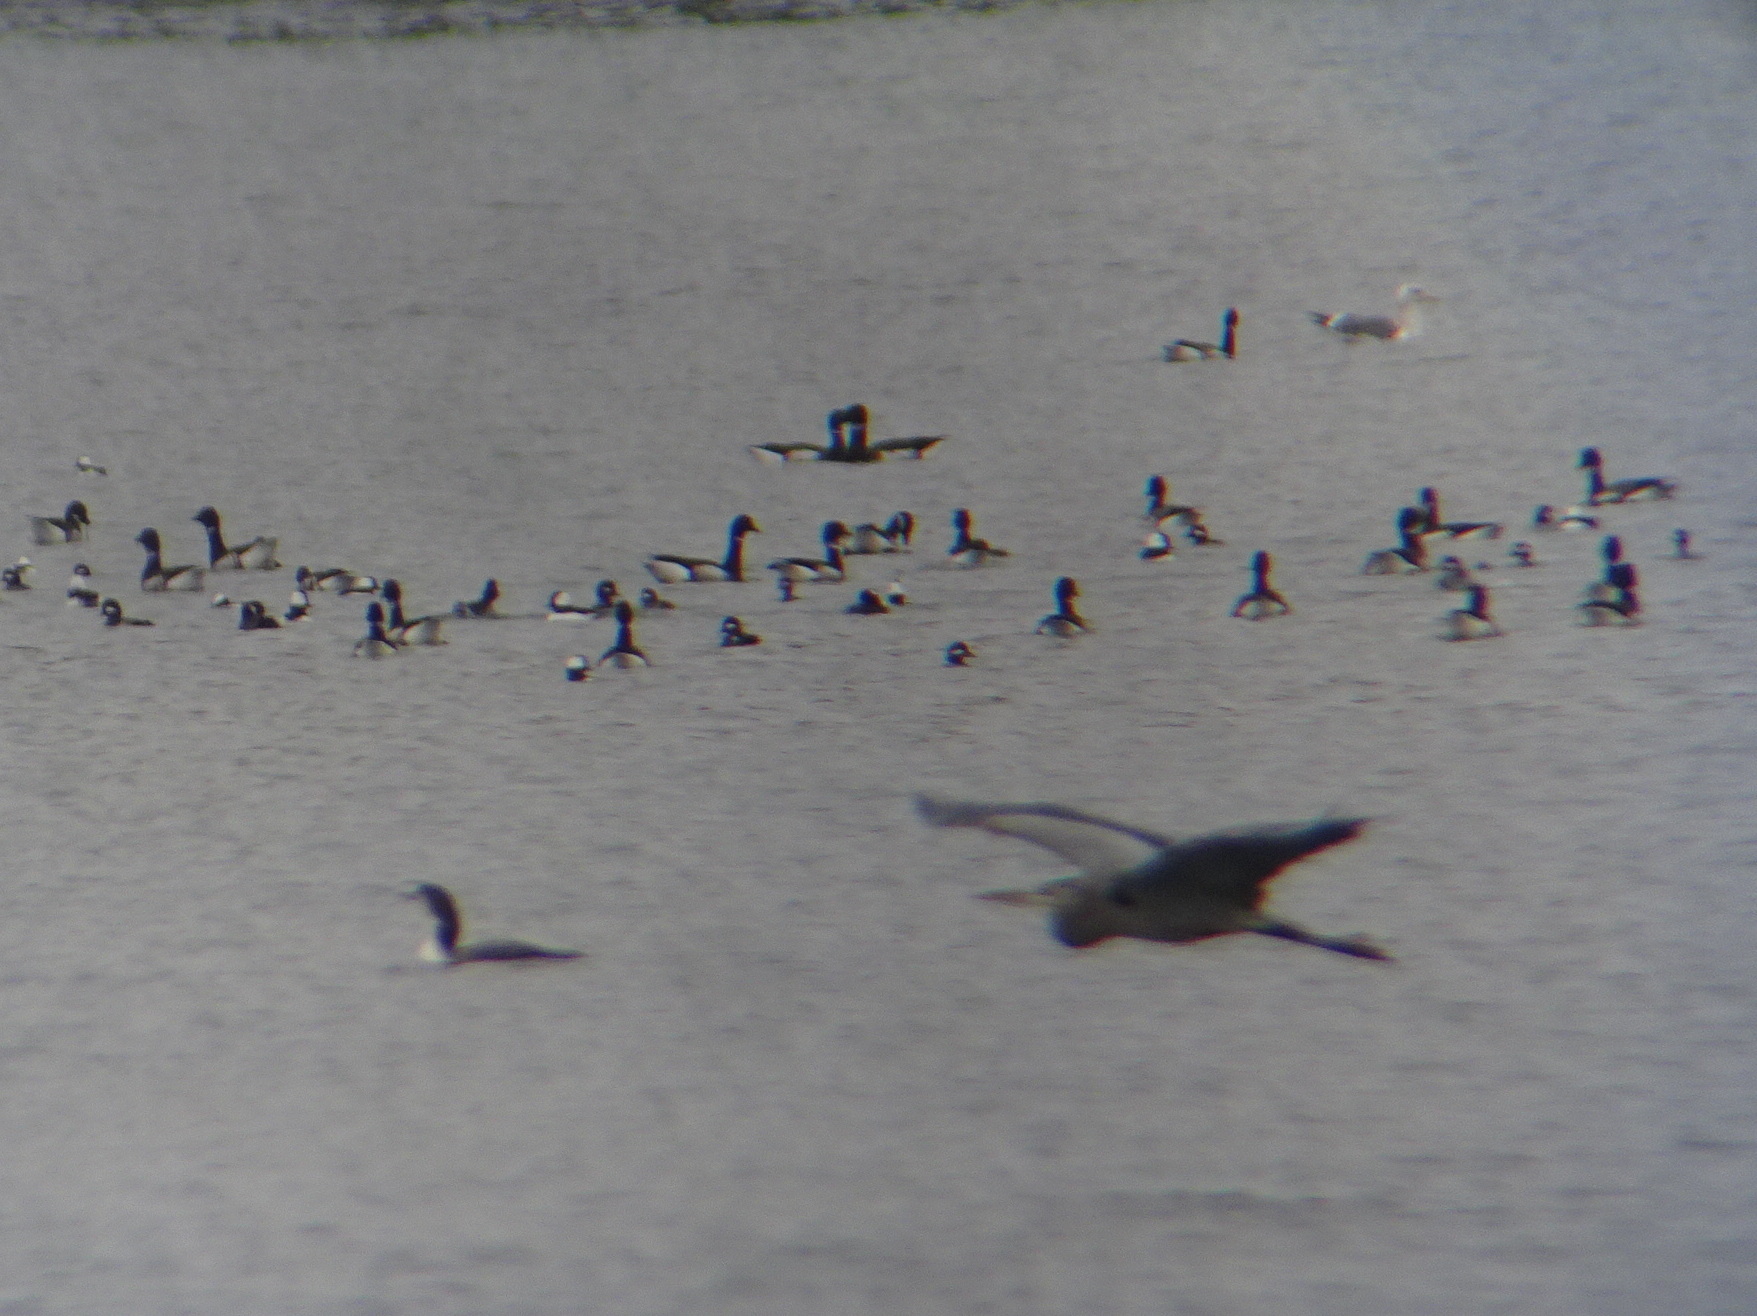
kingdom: Animalia
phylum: Chordata
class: Aves
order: Pelecaniformes
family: Ardeidae
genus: Ardea
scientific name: Ardea herodias
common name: Great blue heron
